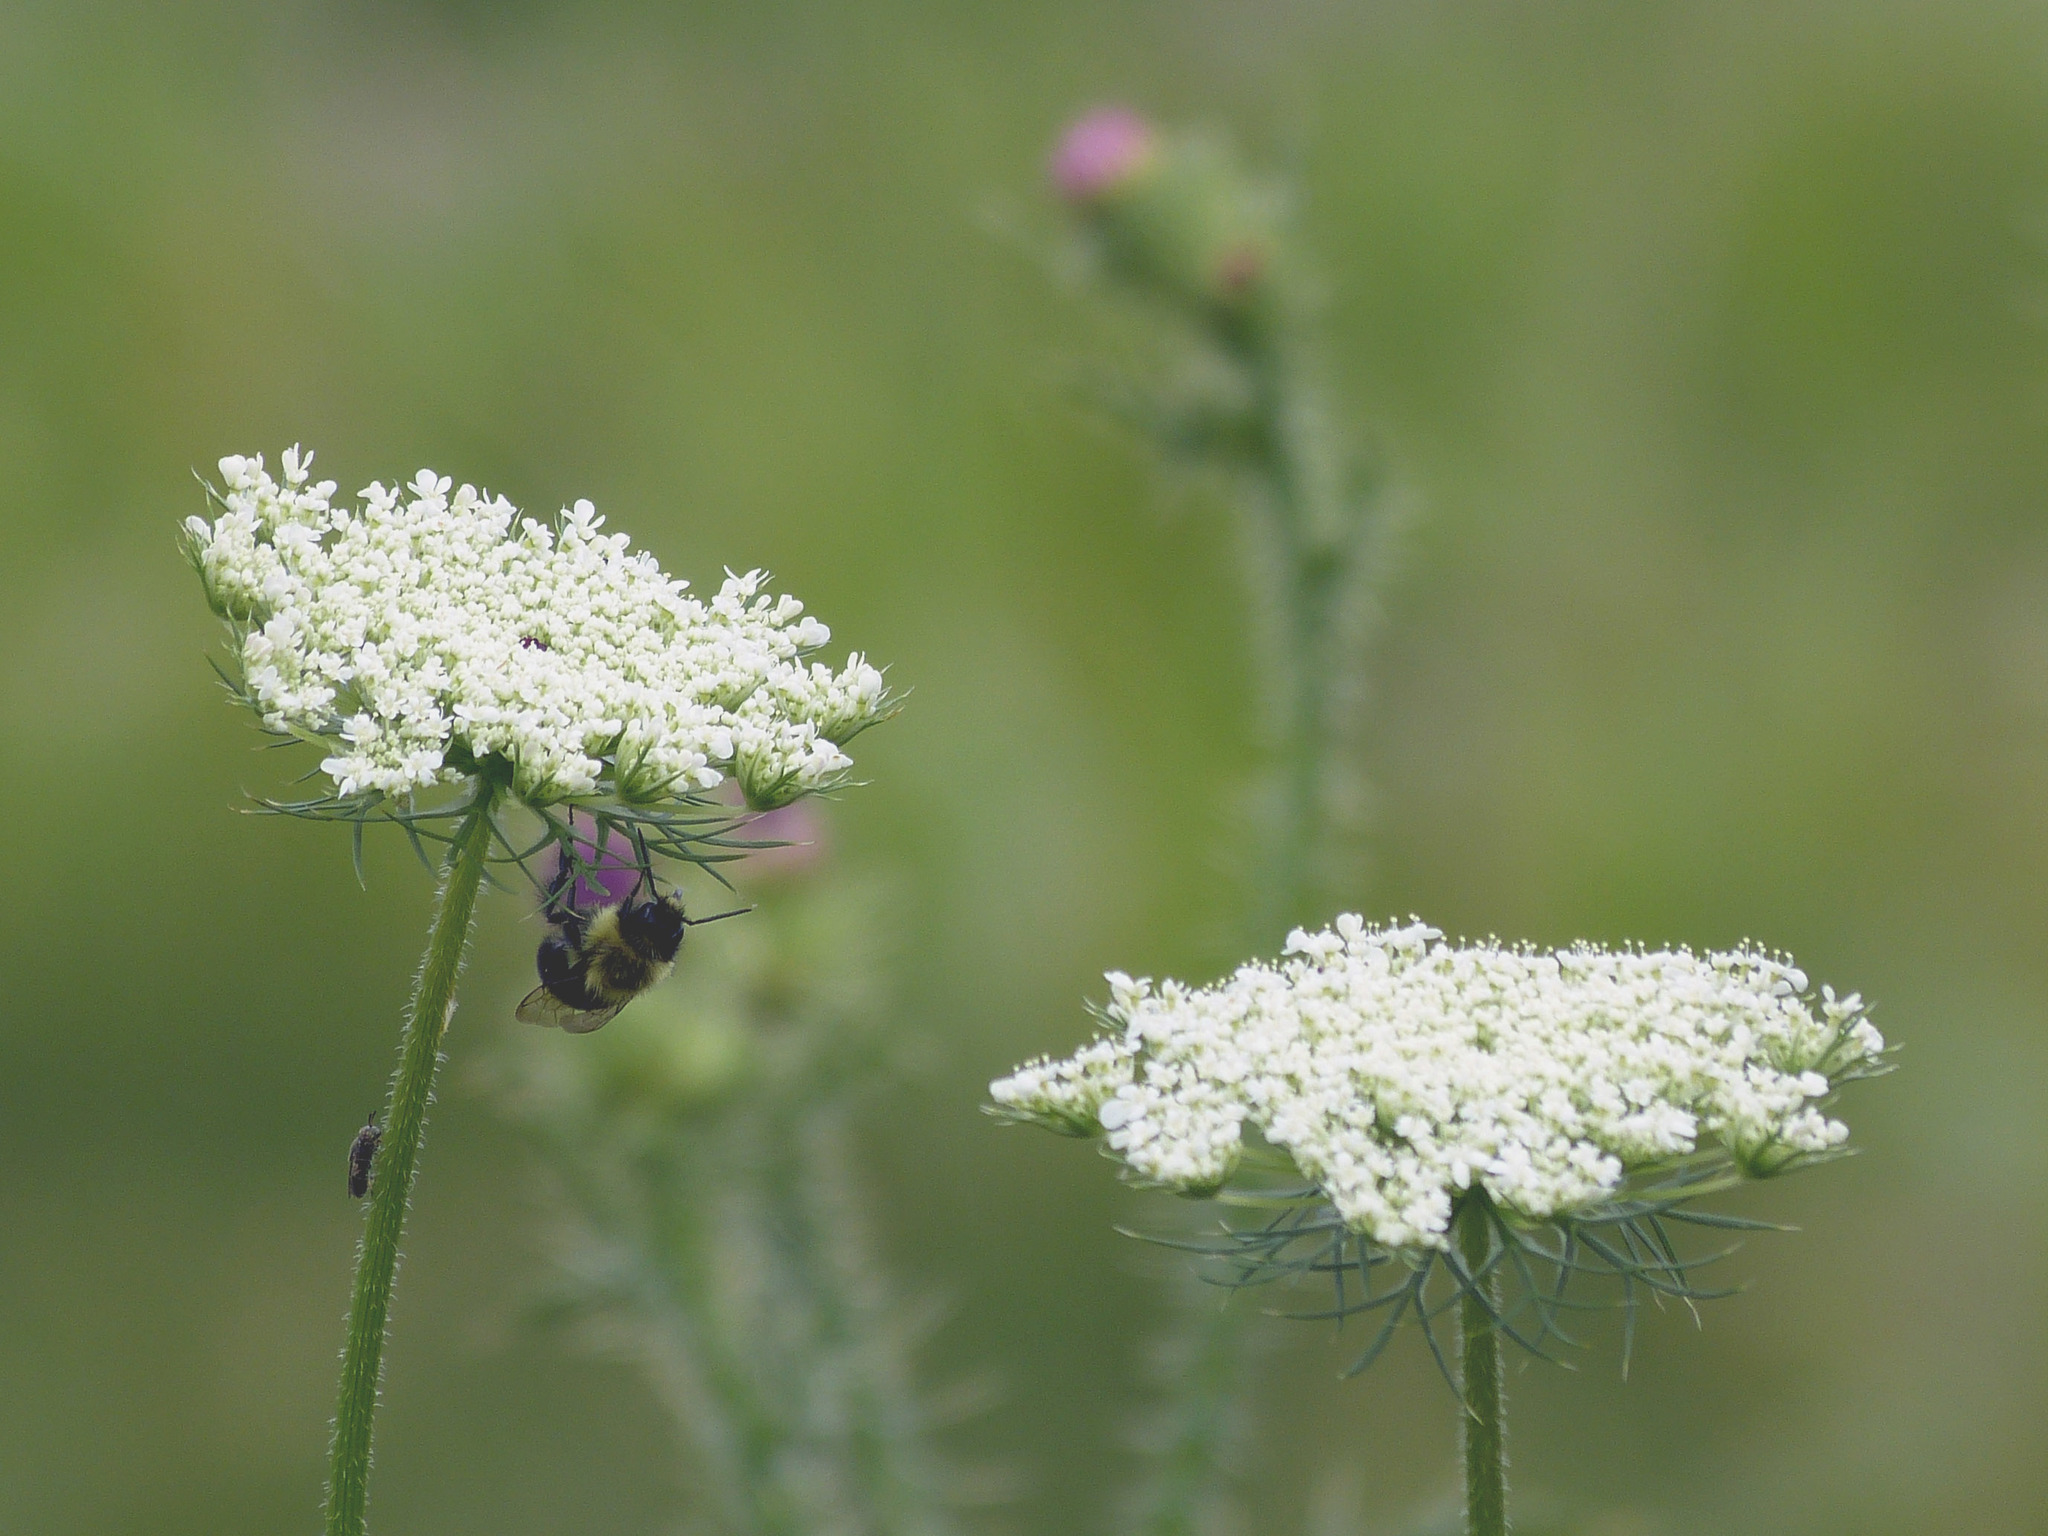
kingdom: Plantae
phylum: Tracheophyta
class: Magnoliopsida
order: Apiales
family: Apiaceae
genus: Daucus
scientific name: Daucus carota
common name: Wild carrot
